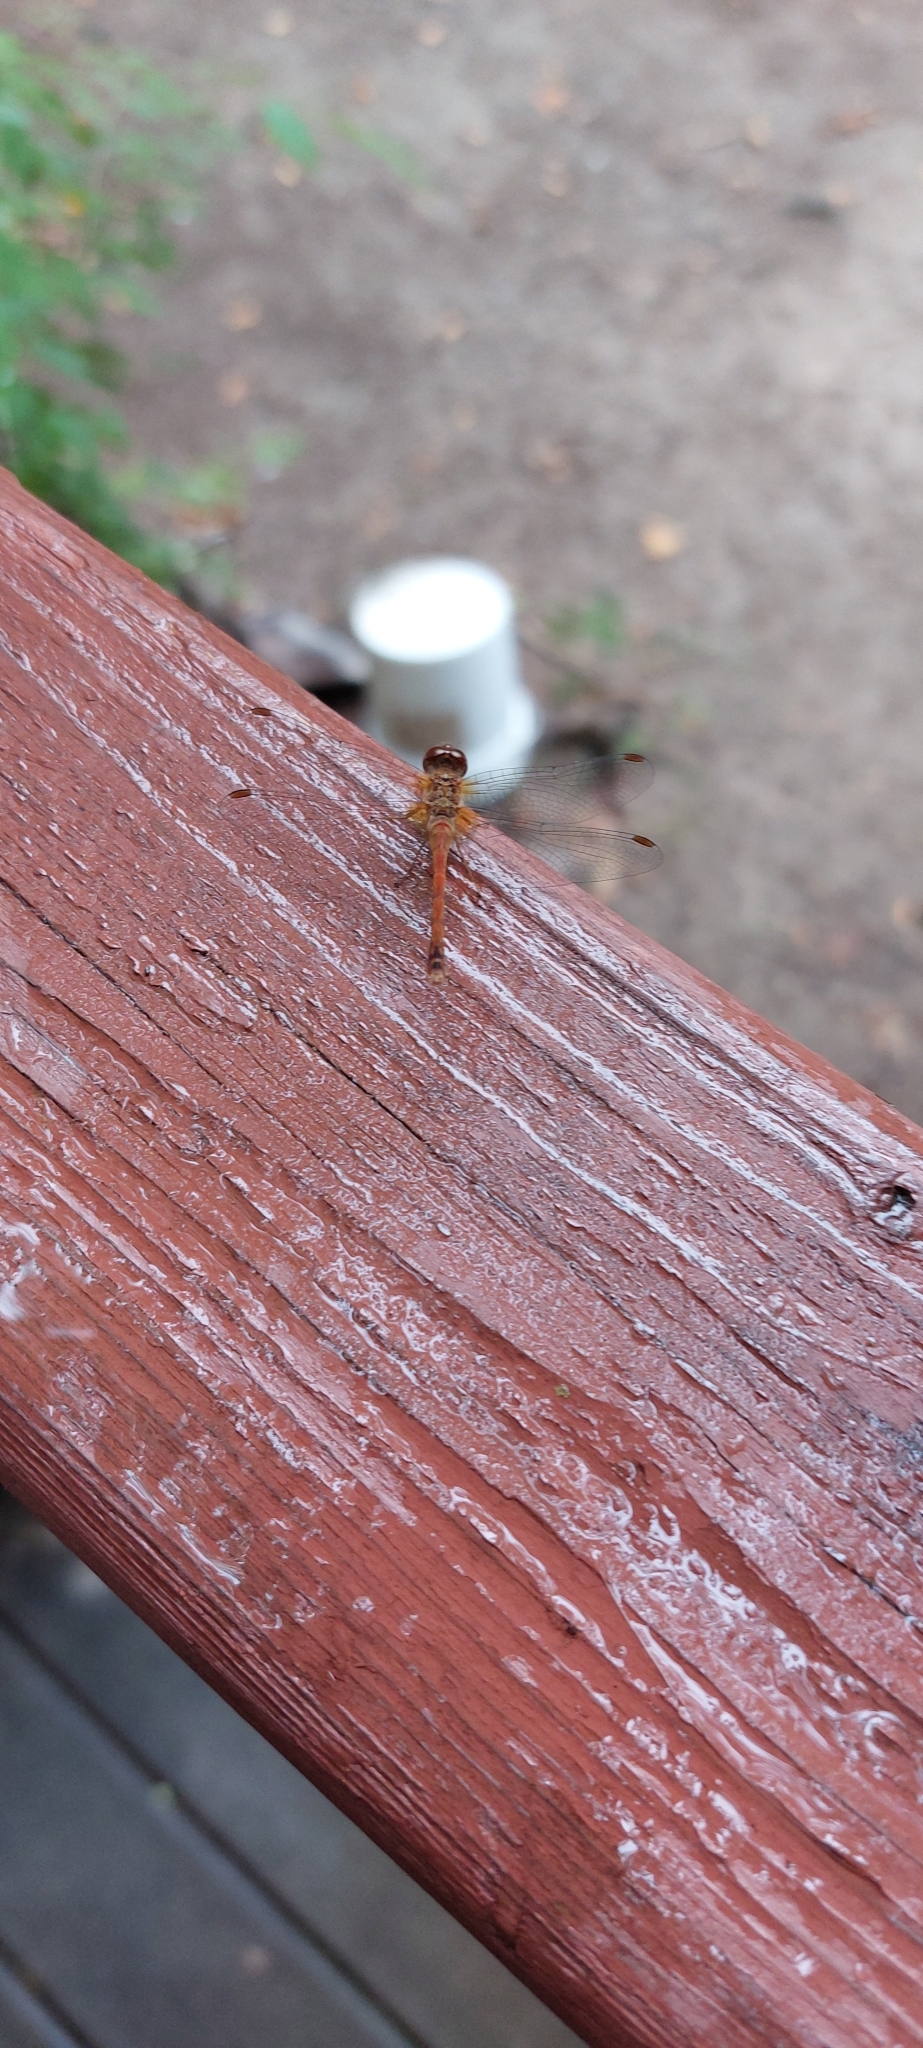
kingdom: Animalia
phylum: Arthropoda
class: Insecta
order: Odonata
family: Libellulidae
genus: Sympetrum
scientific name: Sympetrum vicinum
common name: Autumn meadowhawk
